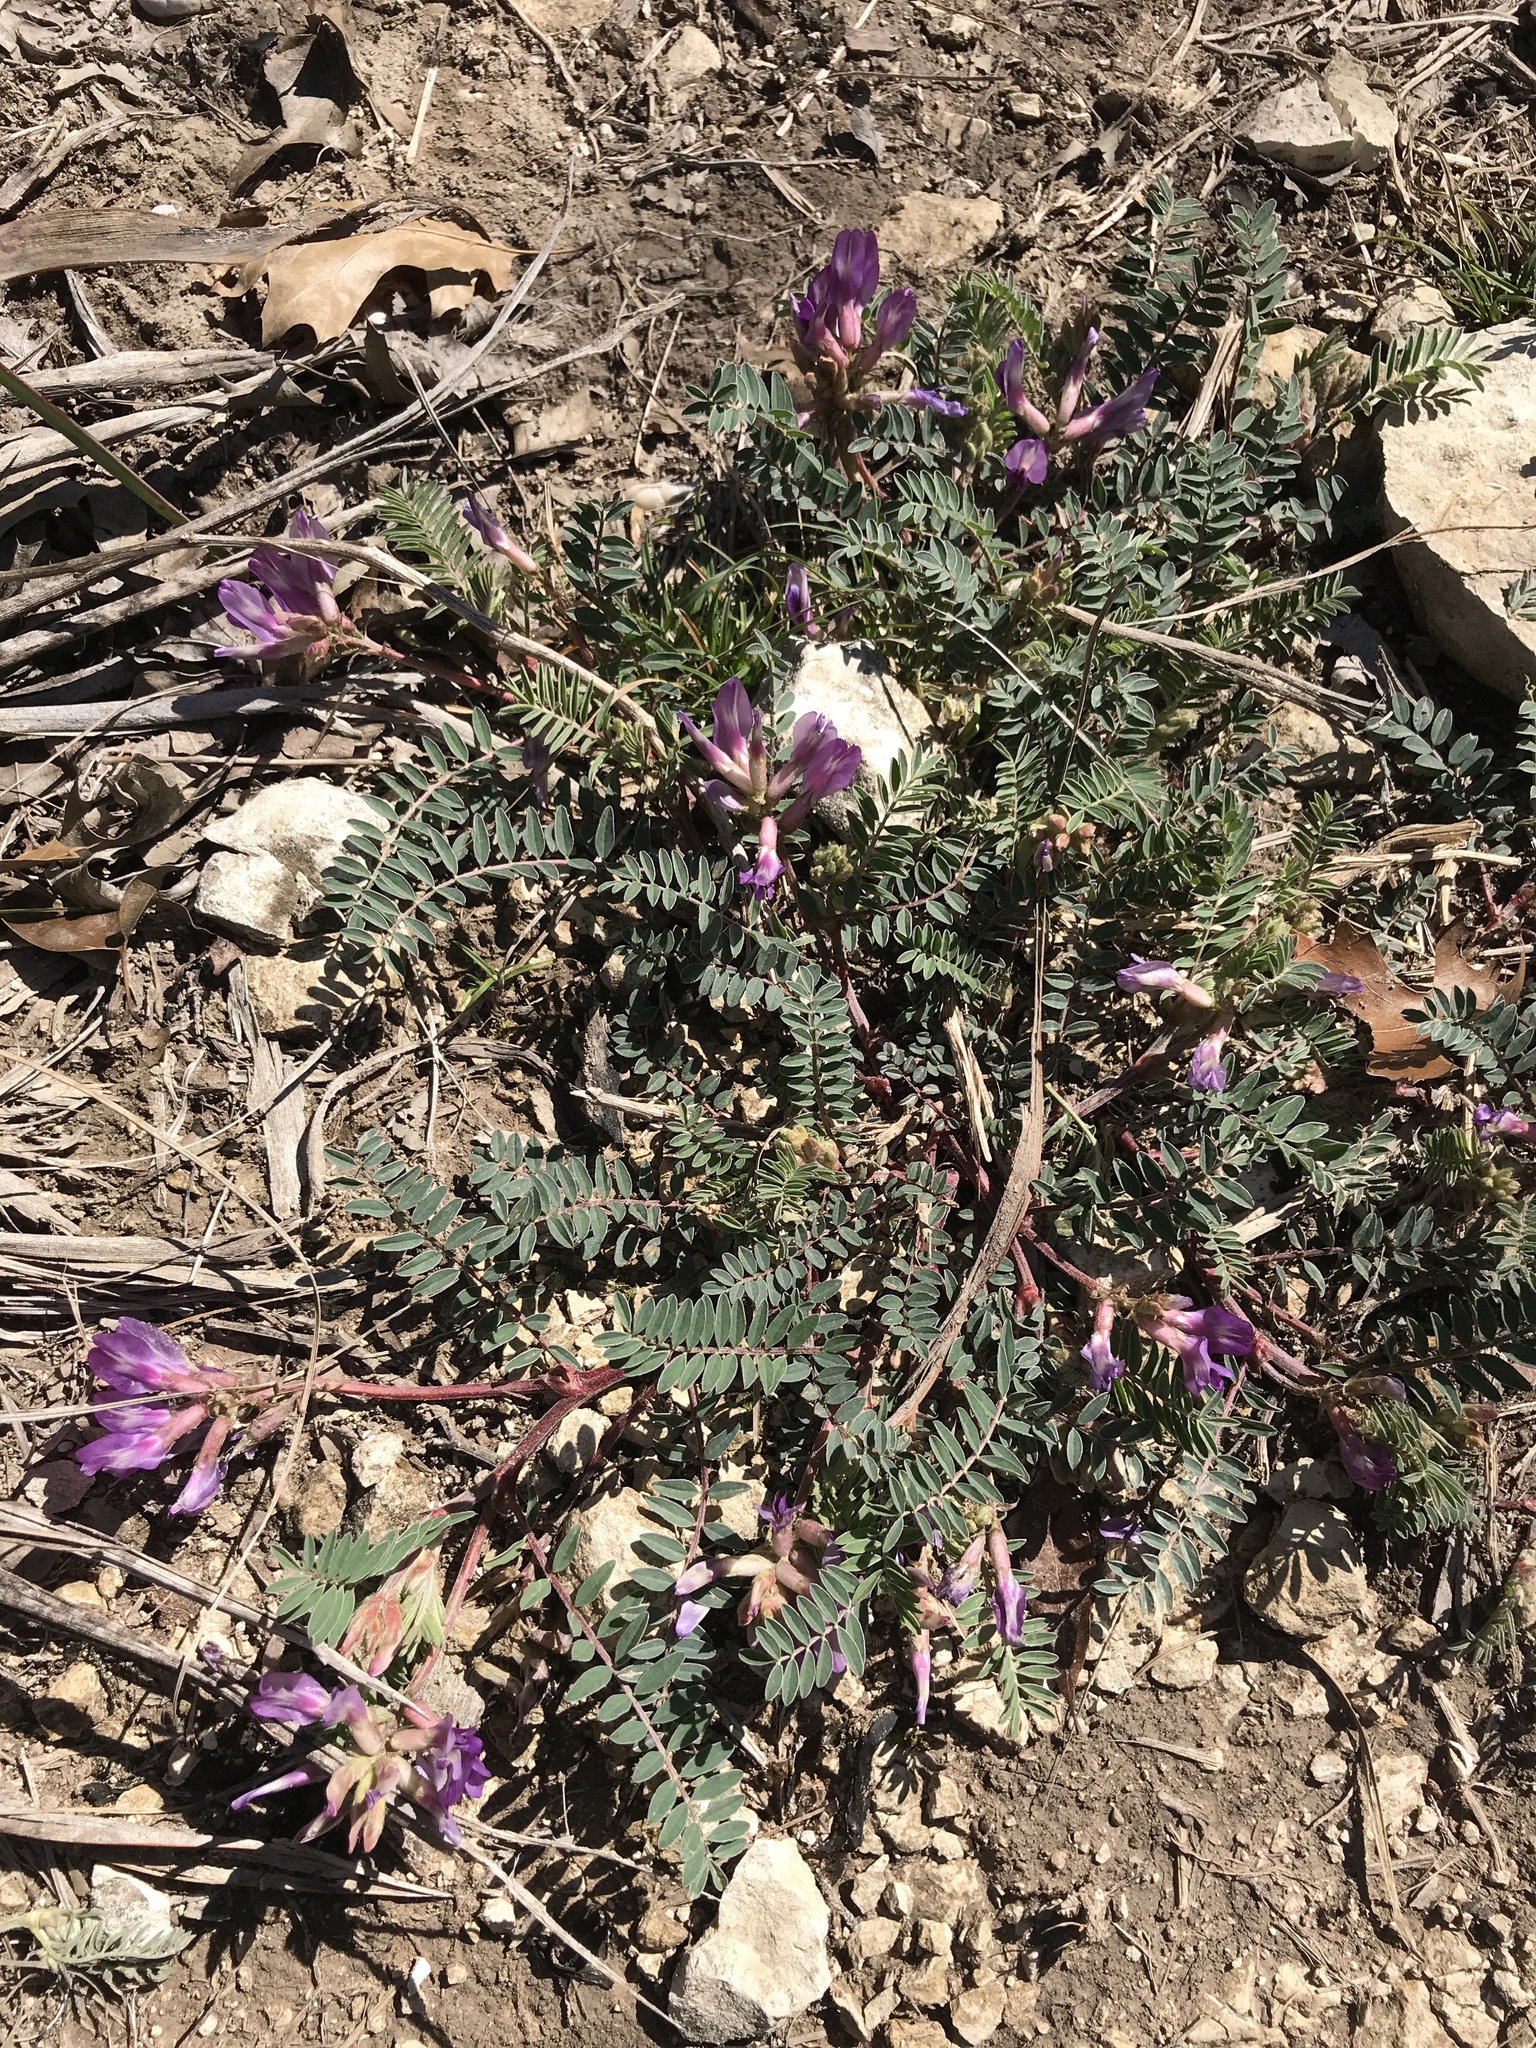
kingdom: Plantae
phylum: Tracheophyta
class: Magnoliopsida
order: Fabales
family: Fabaceae
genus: Astragalus
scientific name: Astragalus crassicarpus
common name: Ground-plum milk-vetch
